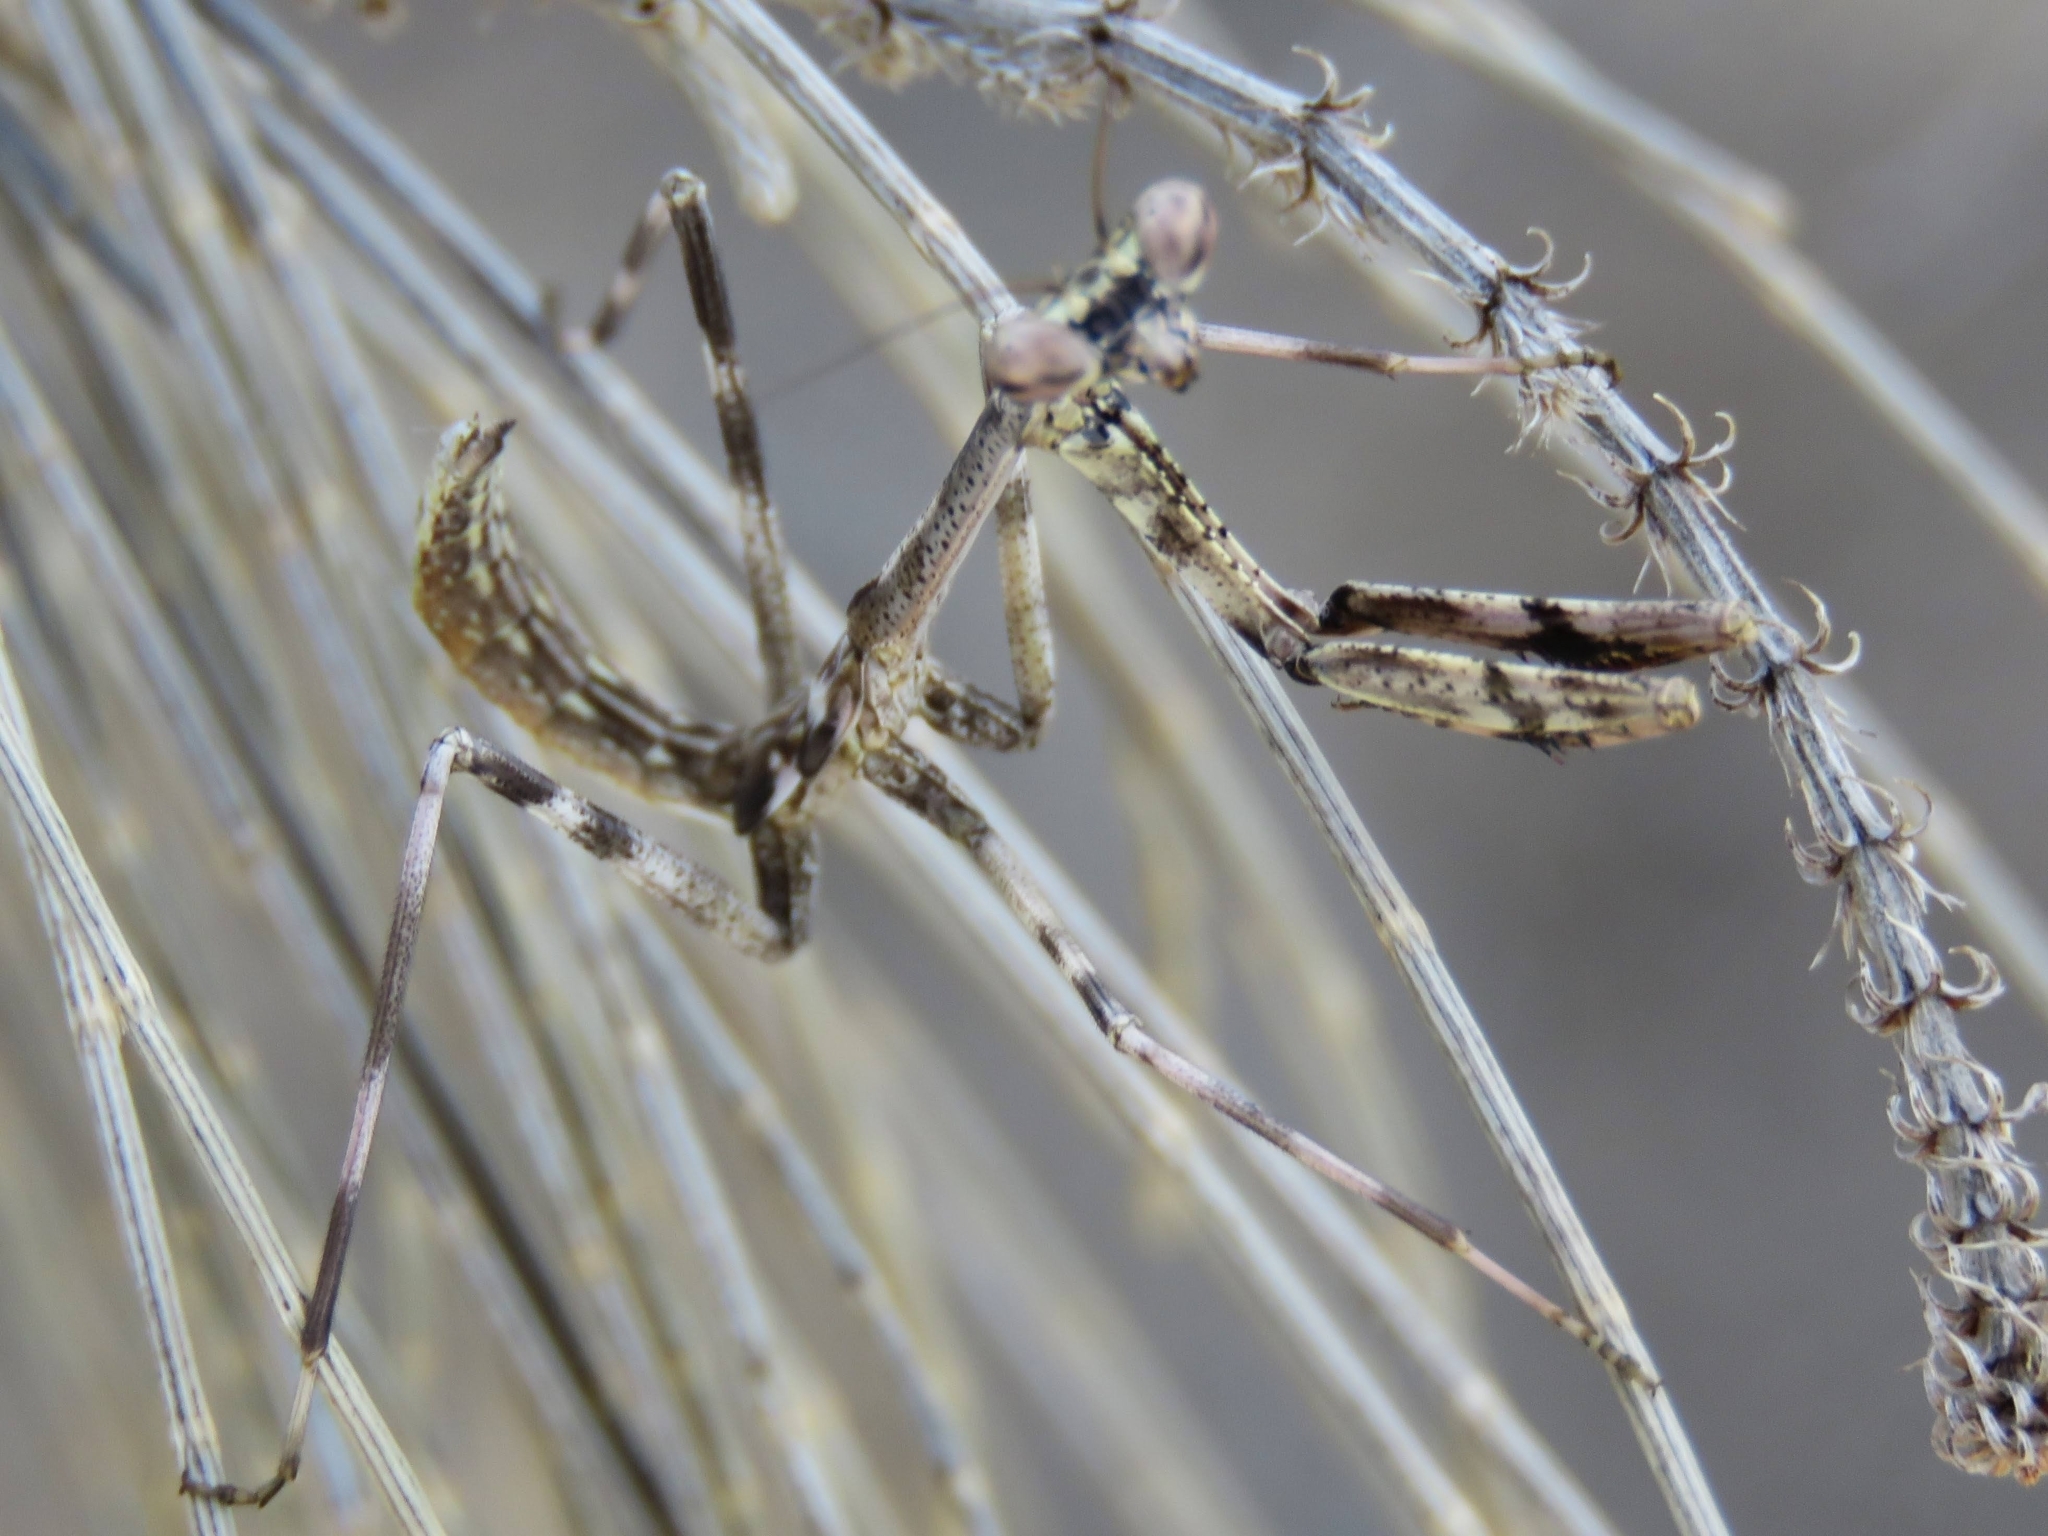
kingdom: Animalia
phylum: Arthropoda
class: Insecta
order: Mantodea
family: Mantidae
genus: Stagmomantis
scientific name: Stagmomantis domingensis
